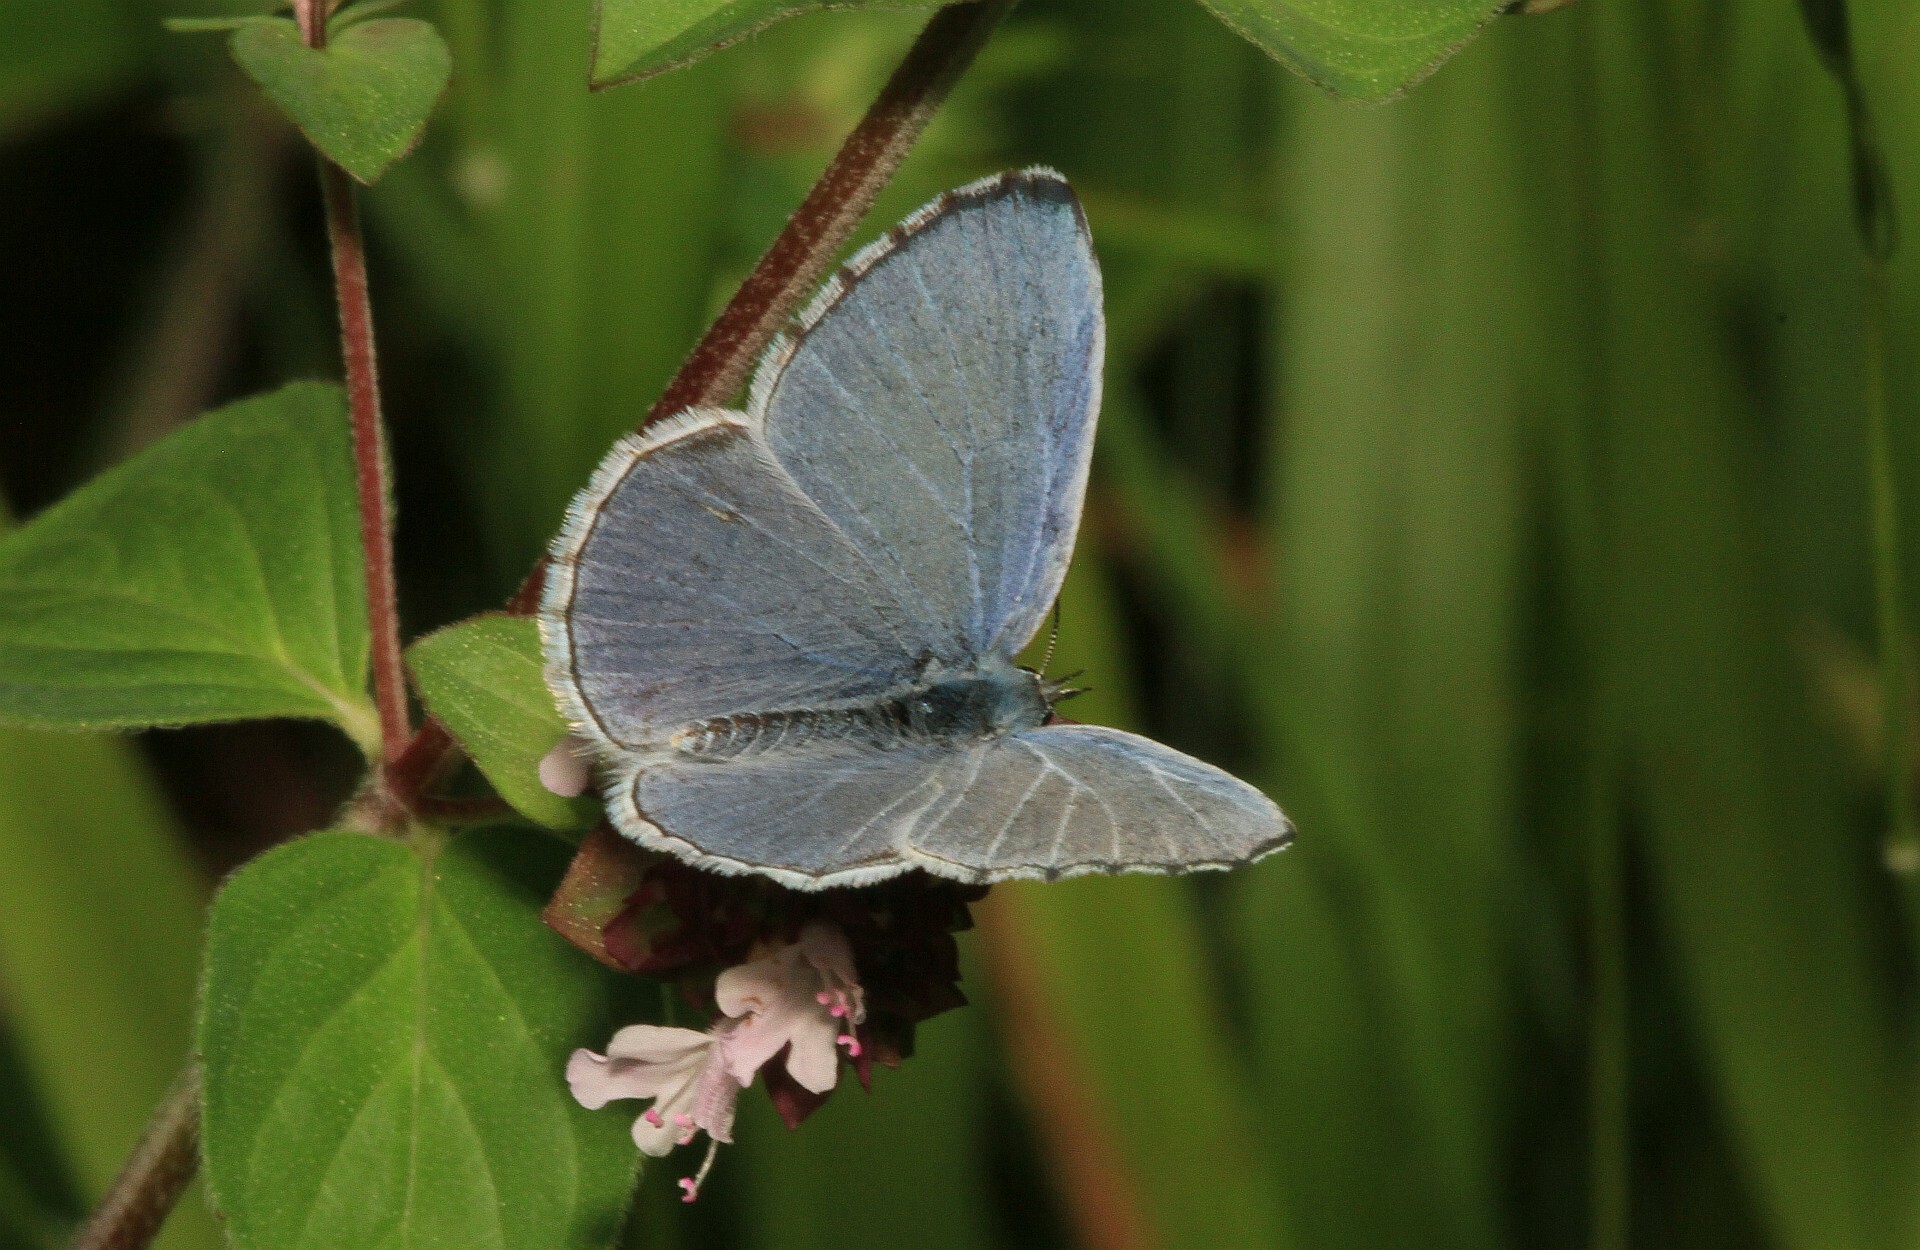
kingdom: Animalia
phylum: Arthropoda
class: Insecta
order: Lepidoptera
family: Lycaenidae
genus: Celastrina
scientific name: Celastrina argiolus
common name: Holly blue
